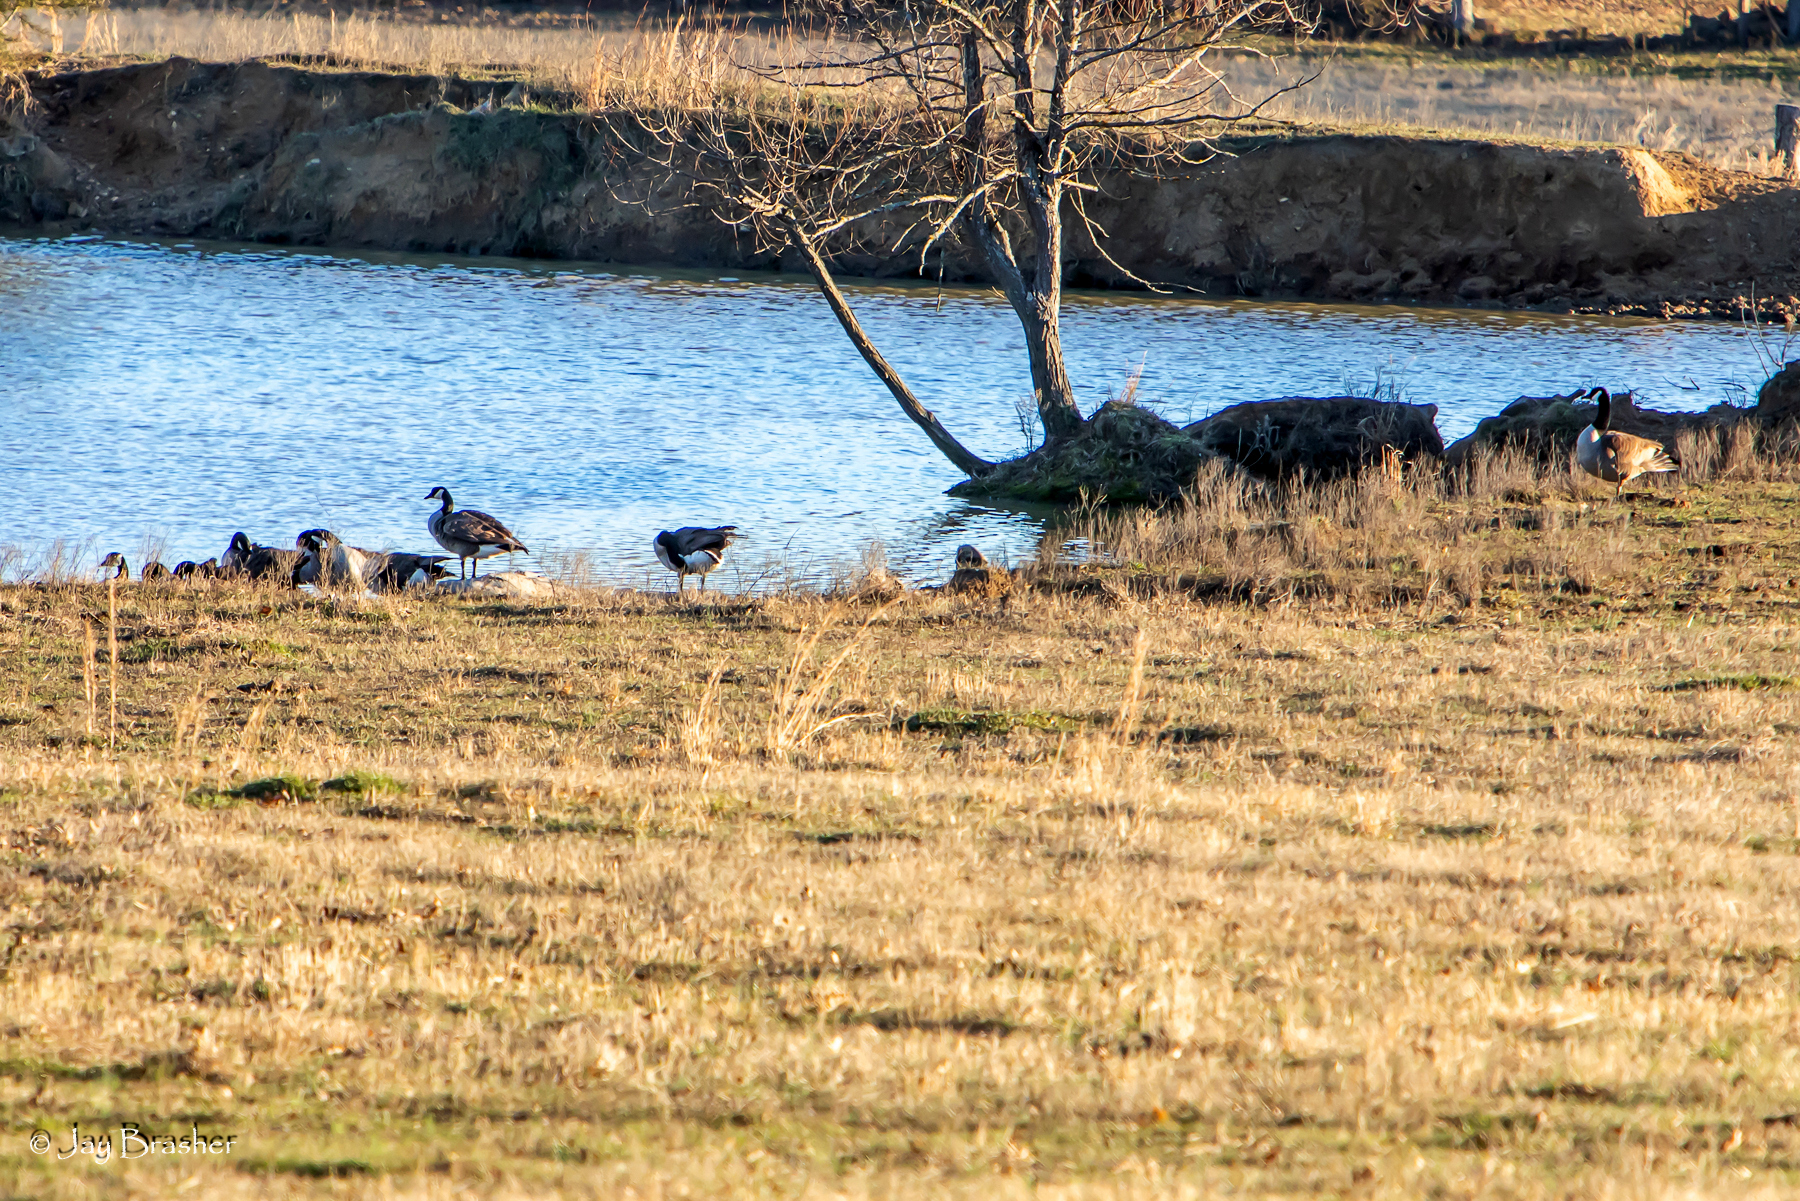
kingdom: Animalia
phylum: Chordata
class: Aves
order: Anseriformes
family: Anatidae
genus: Branta
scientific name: Branta canadensis
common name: Canada goose
